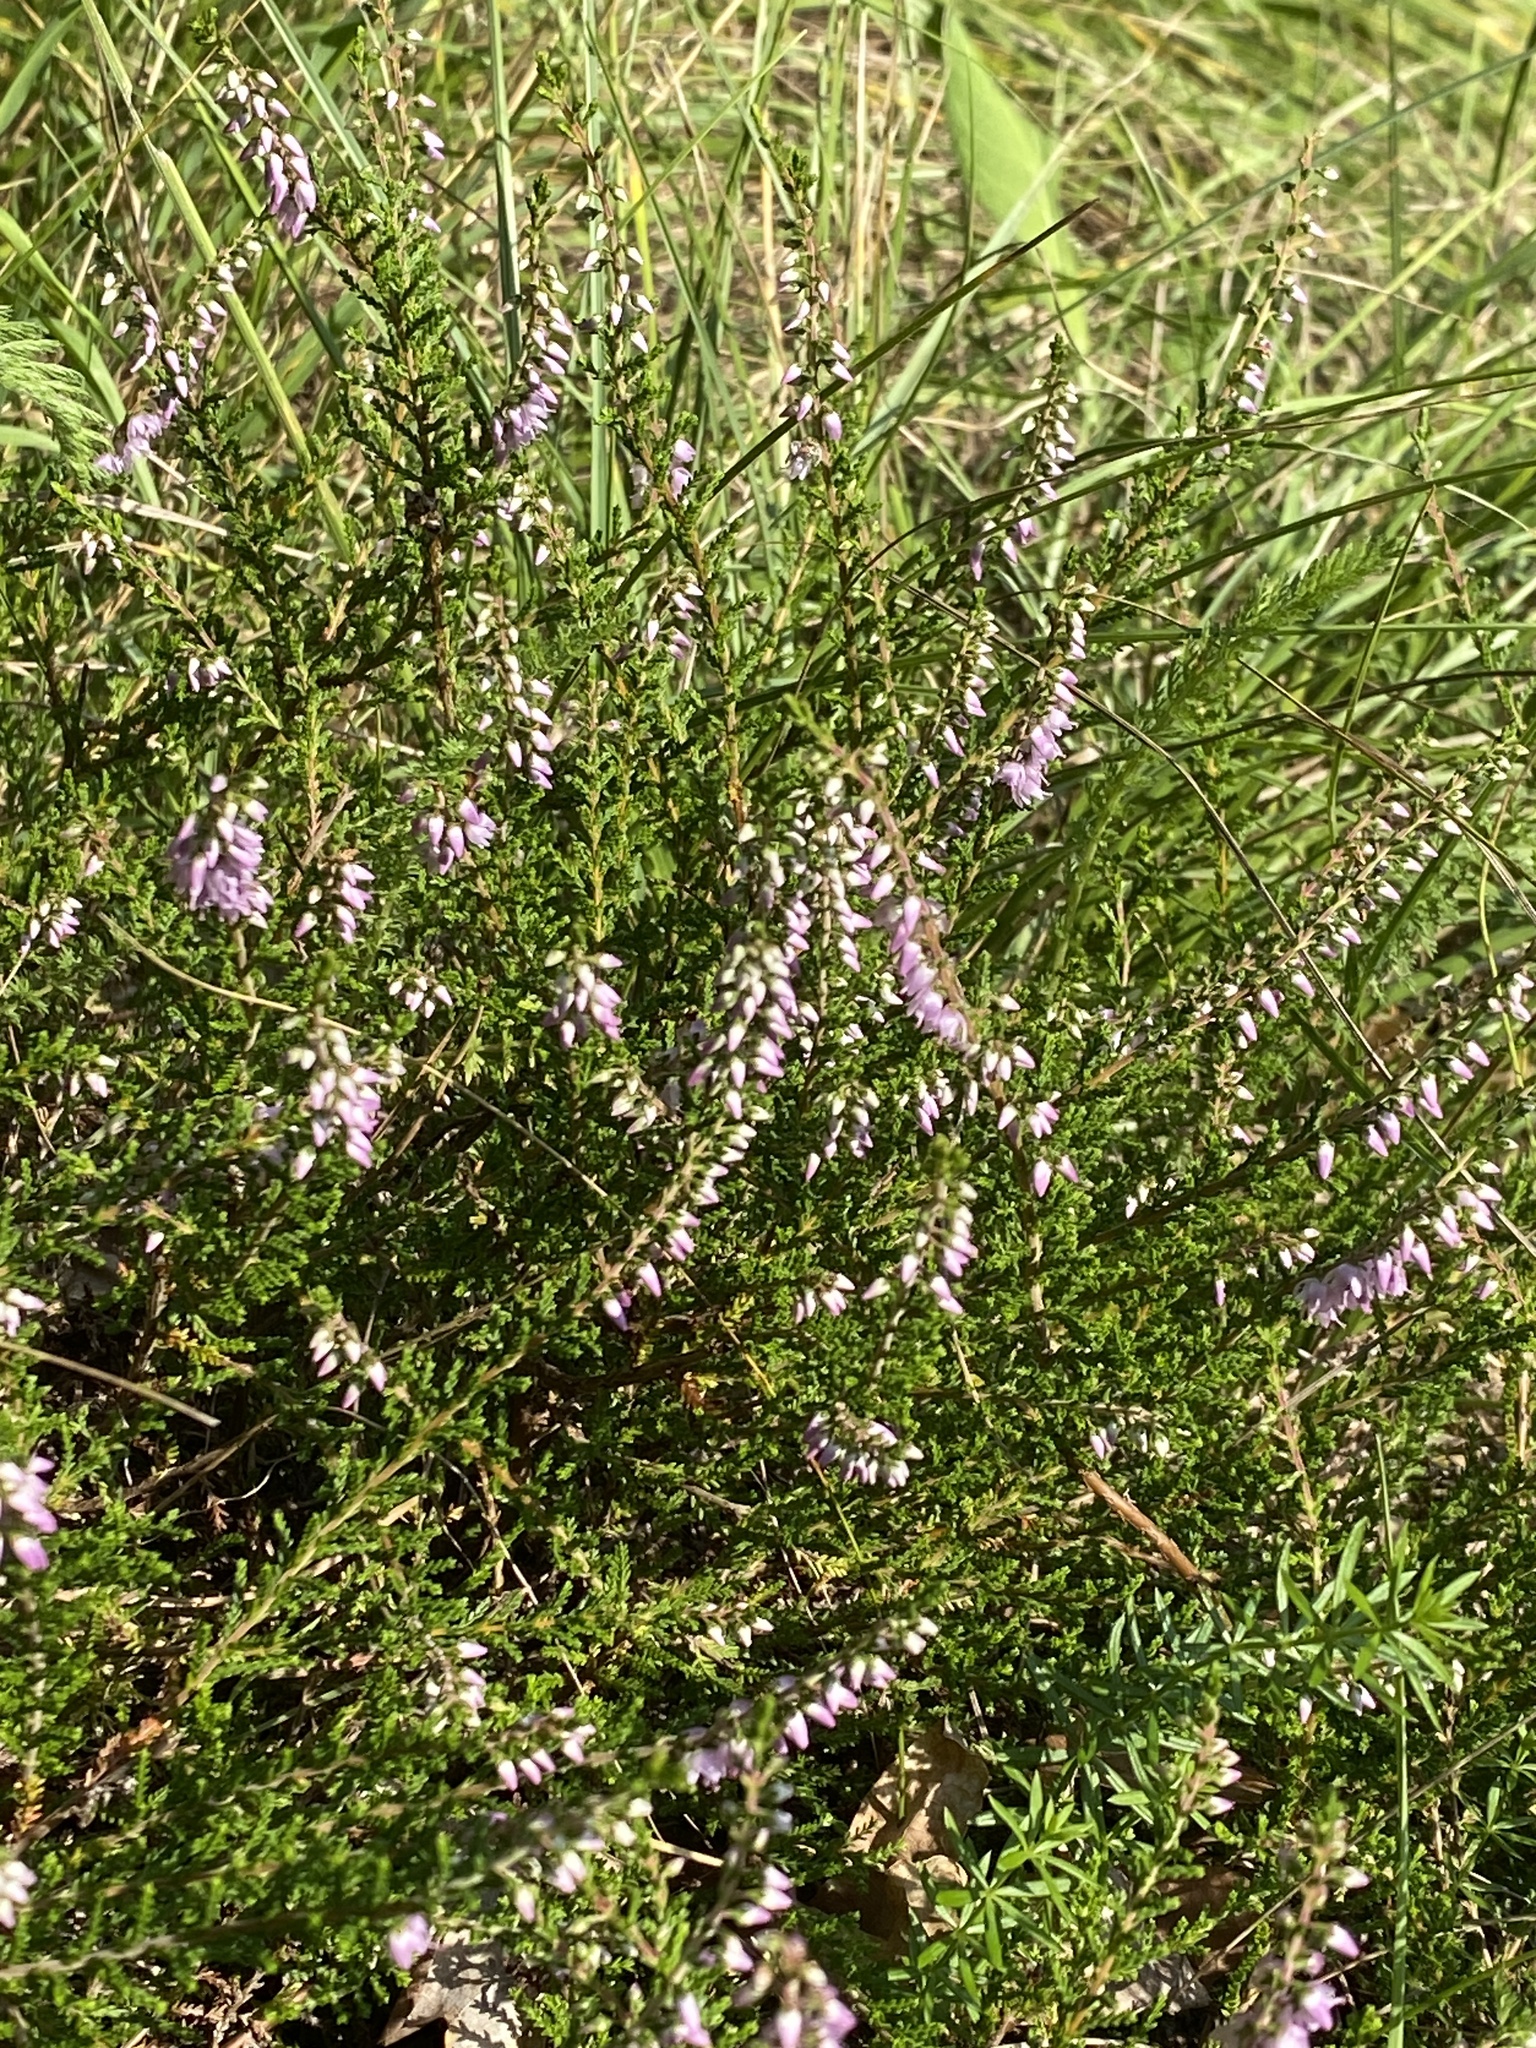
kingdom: Plantae
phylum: Tracheophyta
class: Magnoliopsida
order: Ericales
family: Ericaceae
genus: Calluna
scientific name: Calluna vulgaris
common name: Heather
